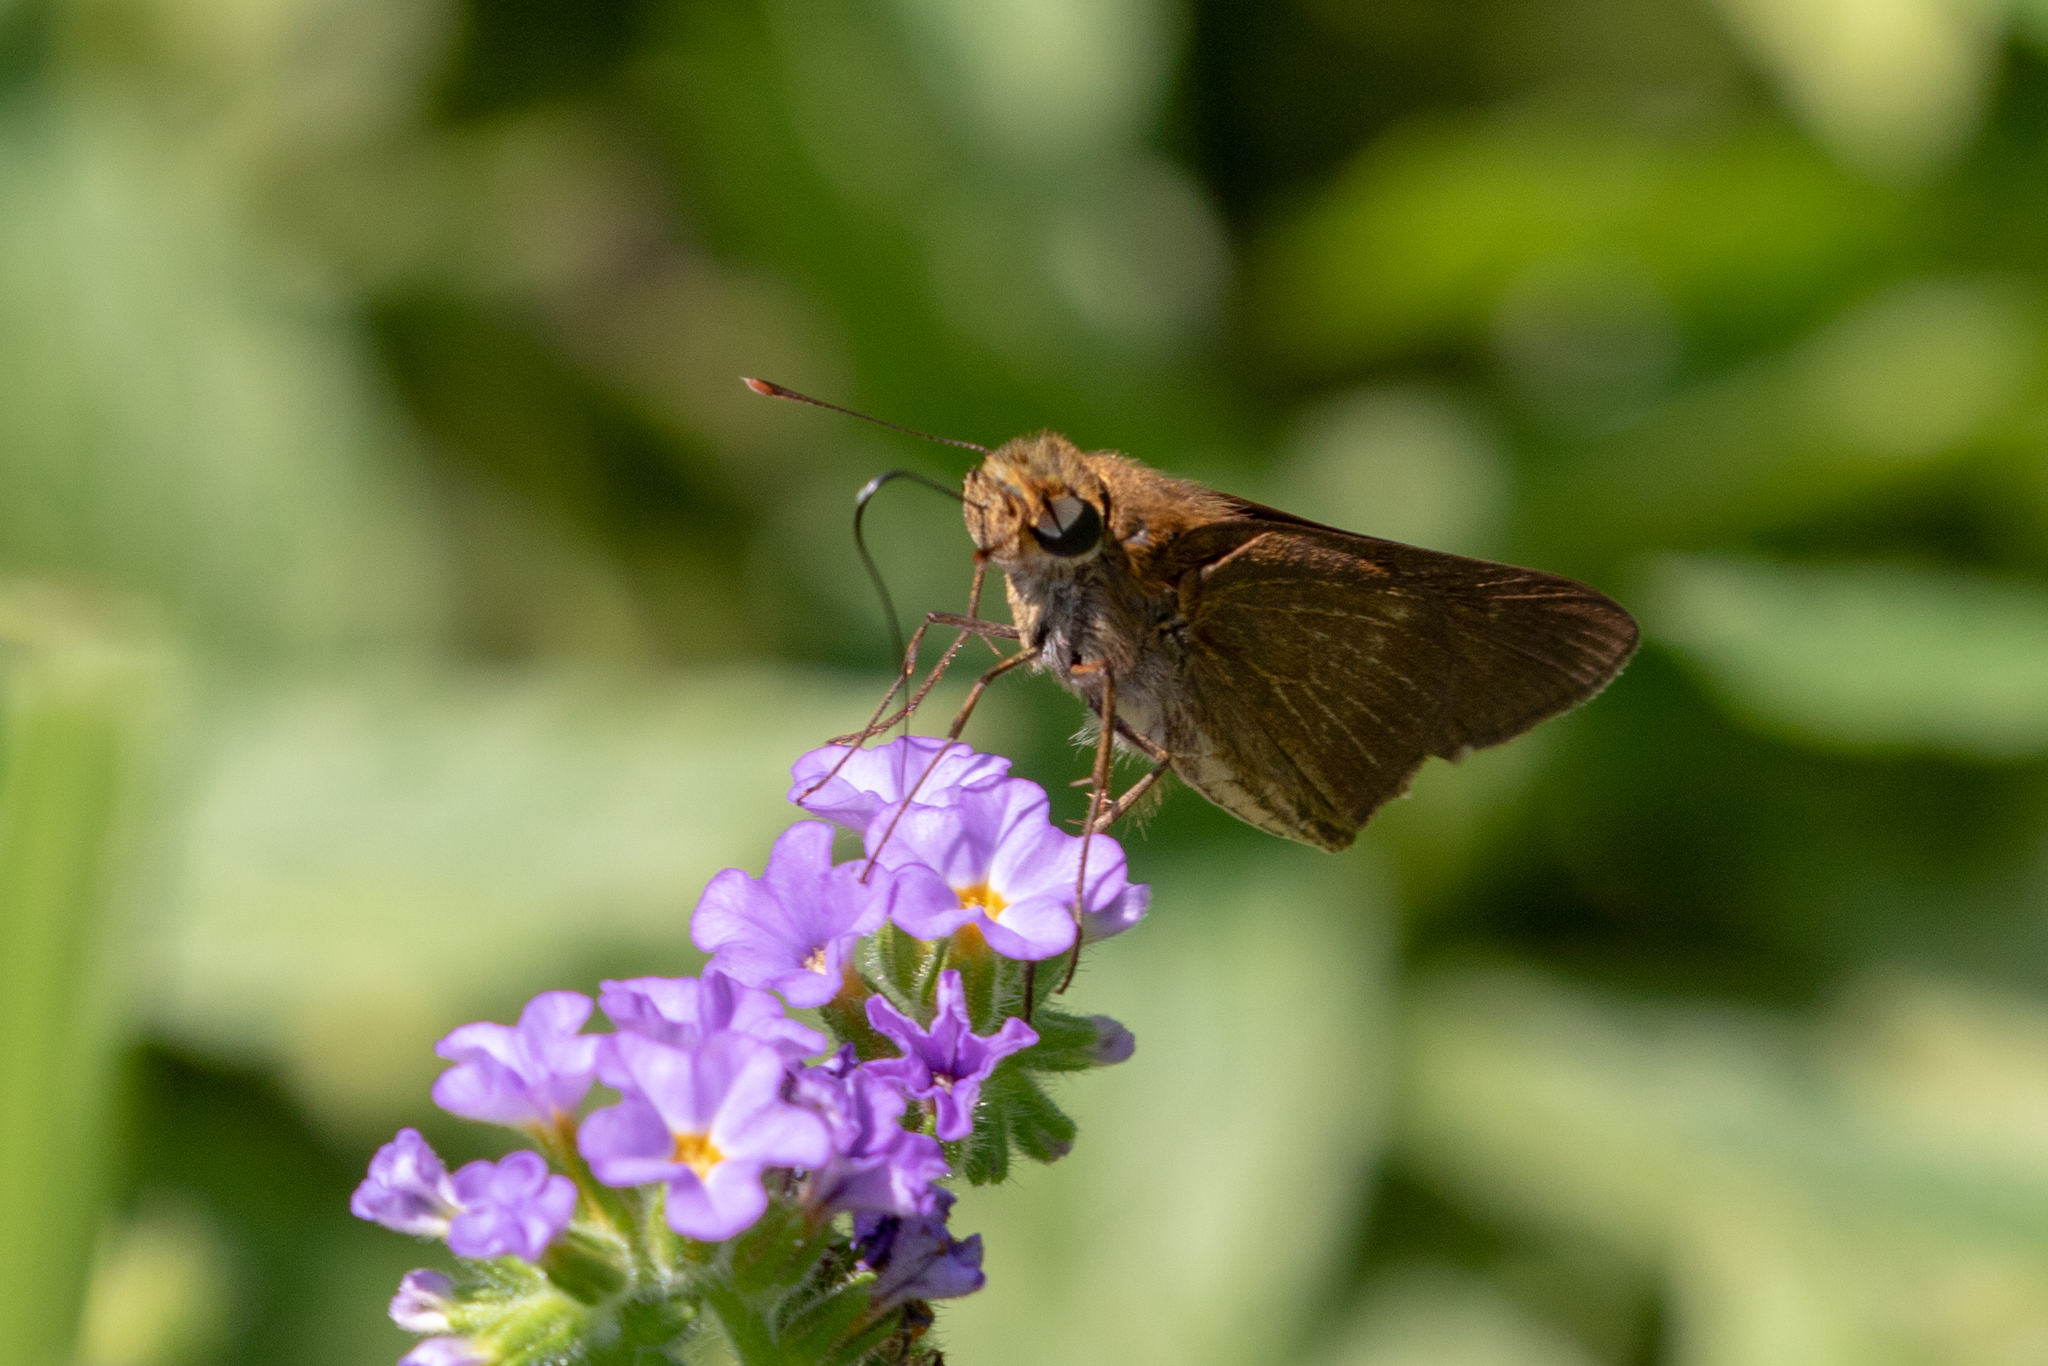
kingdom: Animalia
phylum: Arthropoda
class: Insecta
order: Lepidoptera
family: Hesperiidae
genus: Panoquina
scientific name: Panoquina ocola
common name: Ocola skipper
